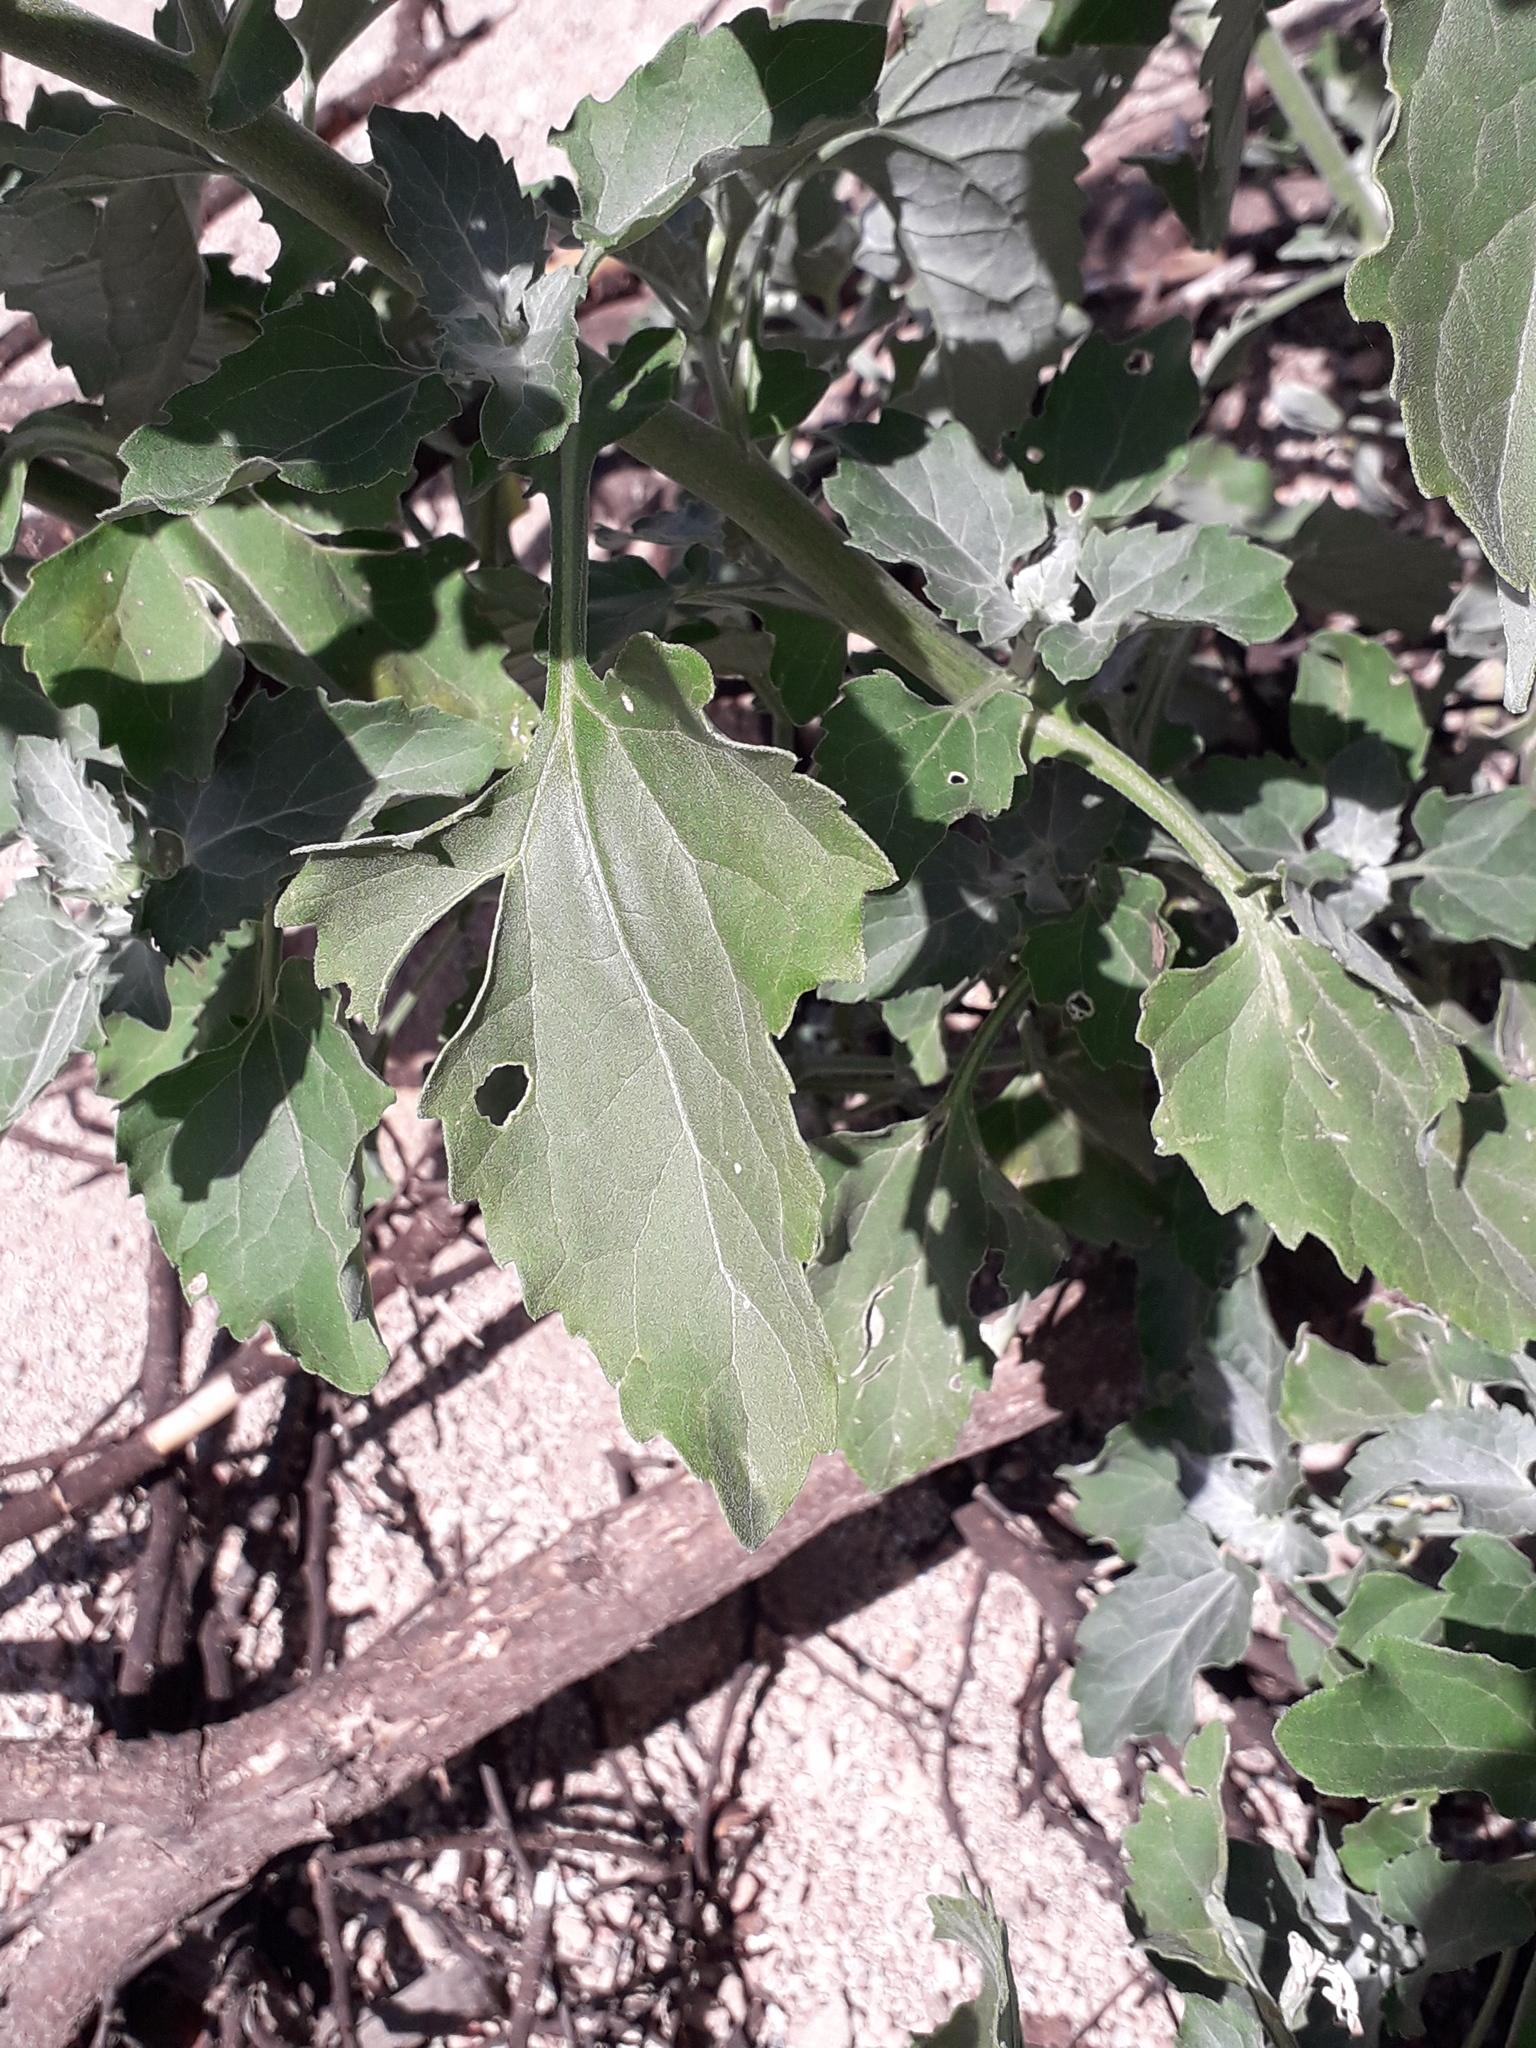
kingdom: Plantae
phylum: Tracheophyta
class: Magnoliopsida
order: Asterales
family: Asteraceae
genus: Verbesina
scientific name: Verbesina encelioides
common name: Golden crownbeard
